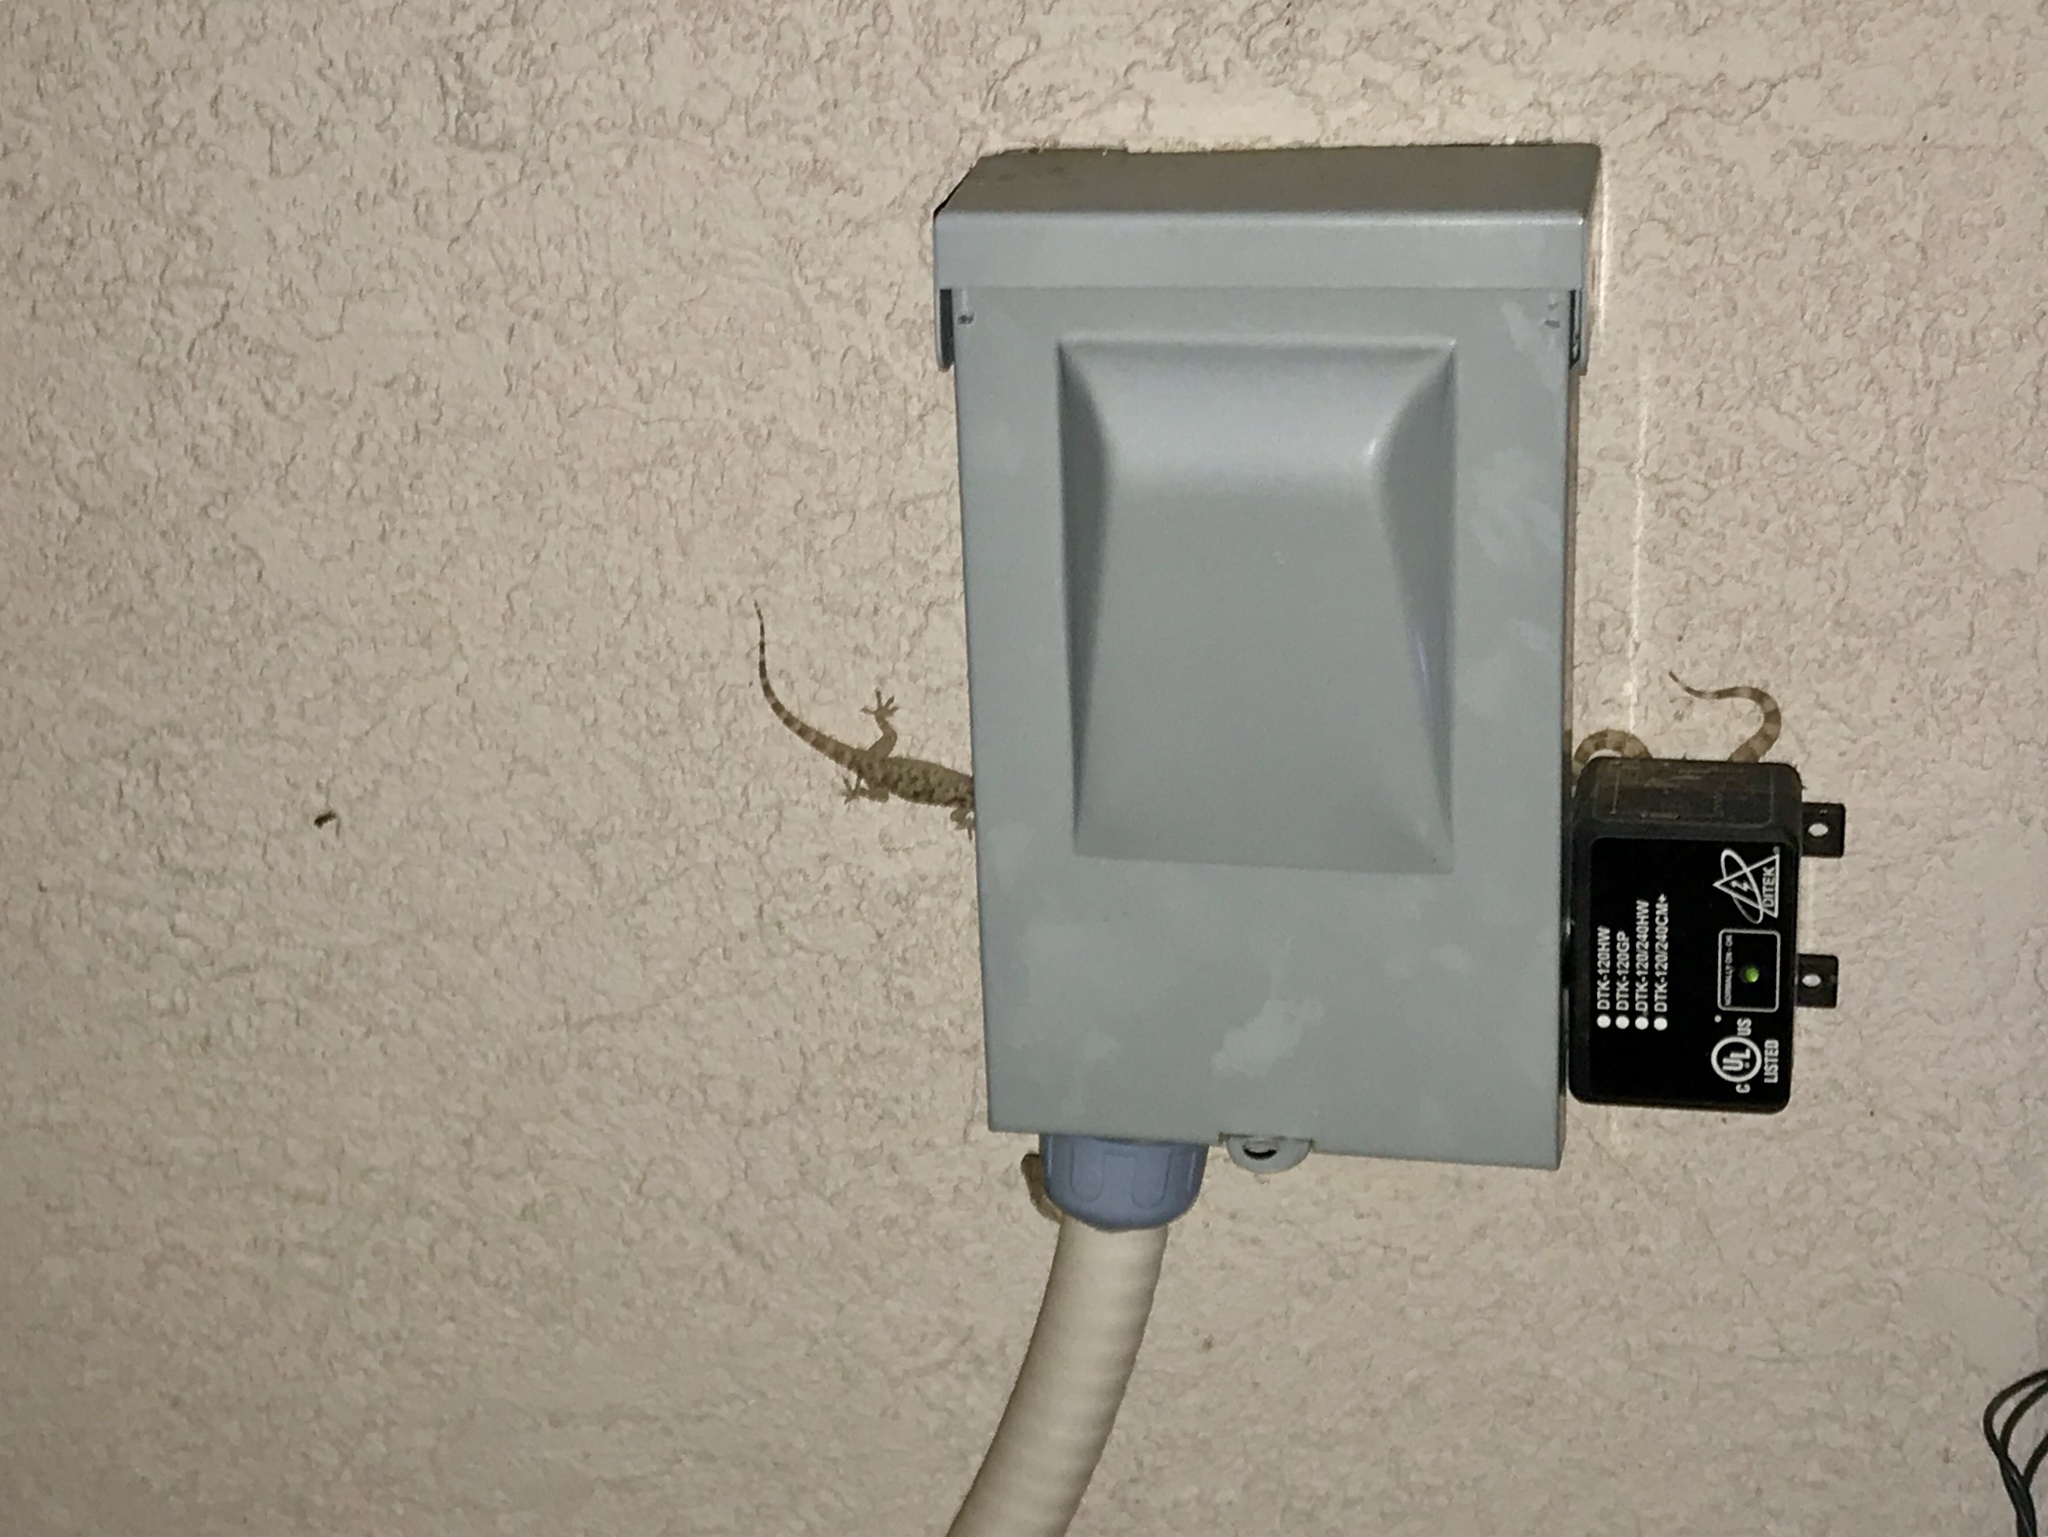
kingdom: Animalia
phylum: Chordata
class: Squamata
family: Gekkonidae
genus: Hemidactylus
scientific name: Hemidactylus turcicus
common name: Turkish gecko
